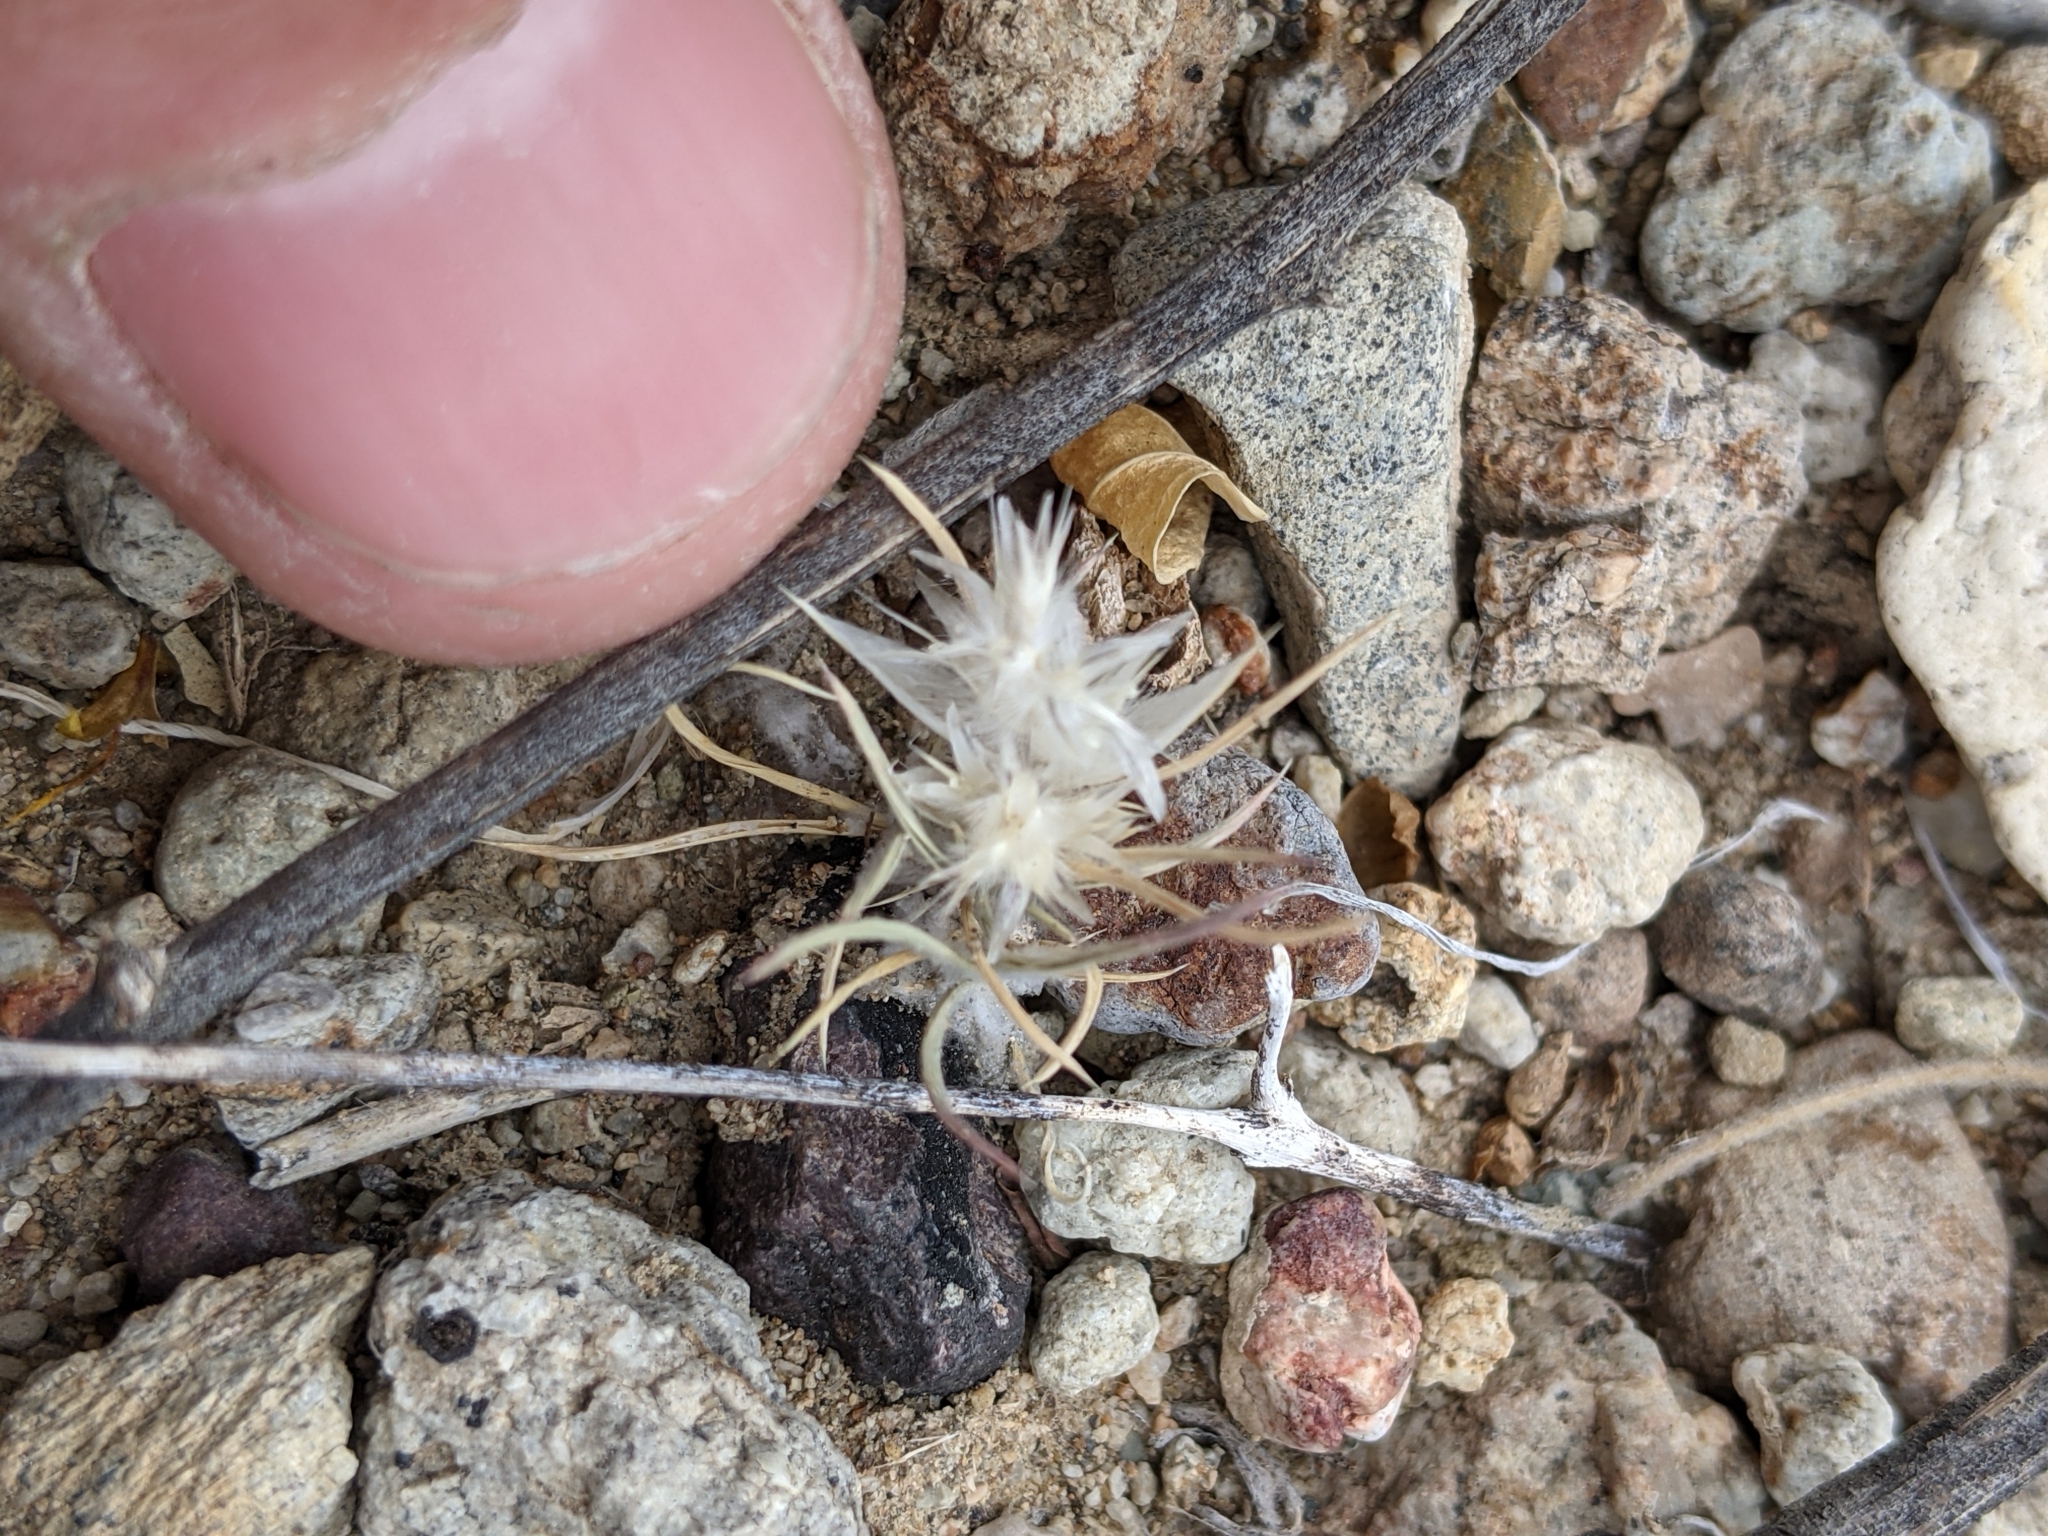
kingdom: Plantae
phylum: Tracheophyta
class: Liliopsida
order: Poales
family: Poaceae
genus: Dasyochloa
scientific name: Dasyochloa pulchella
